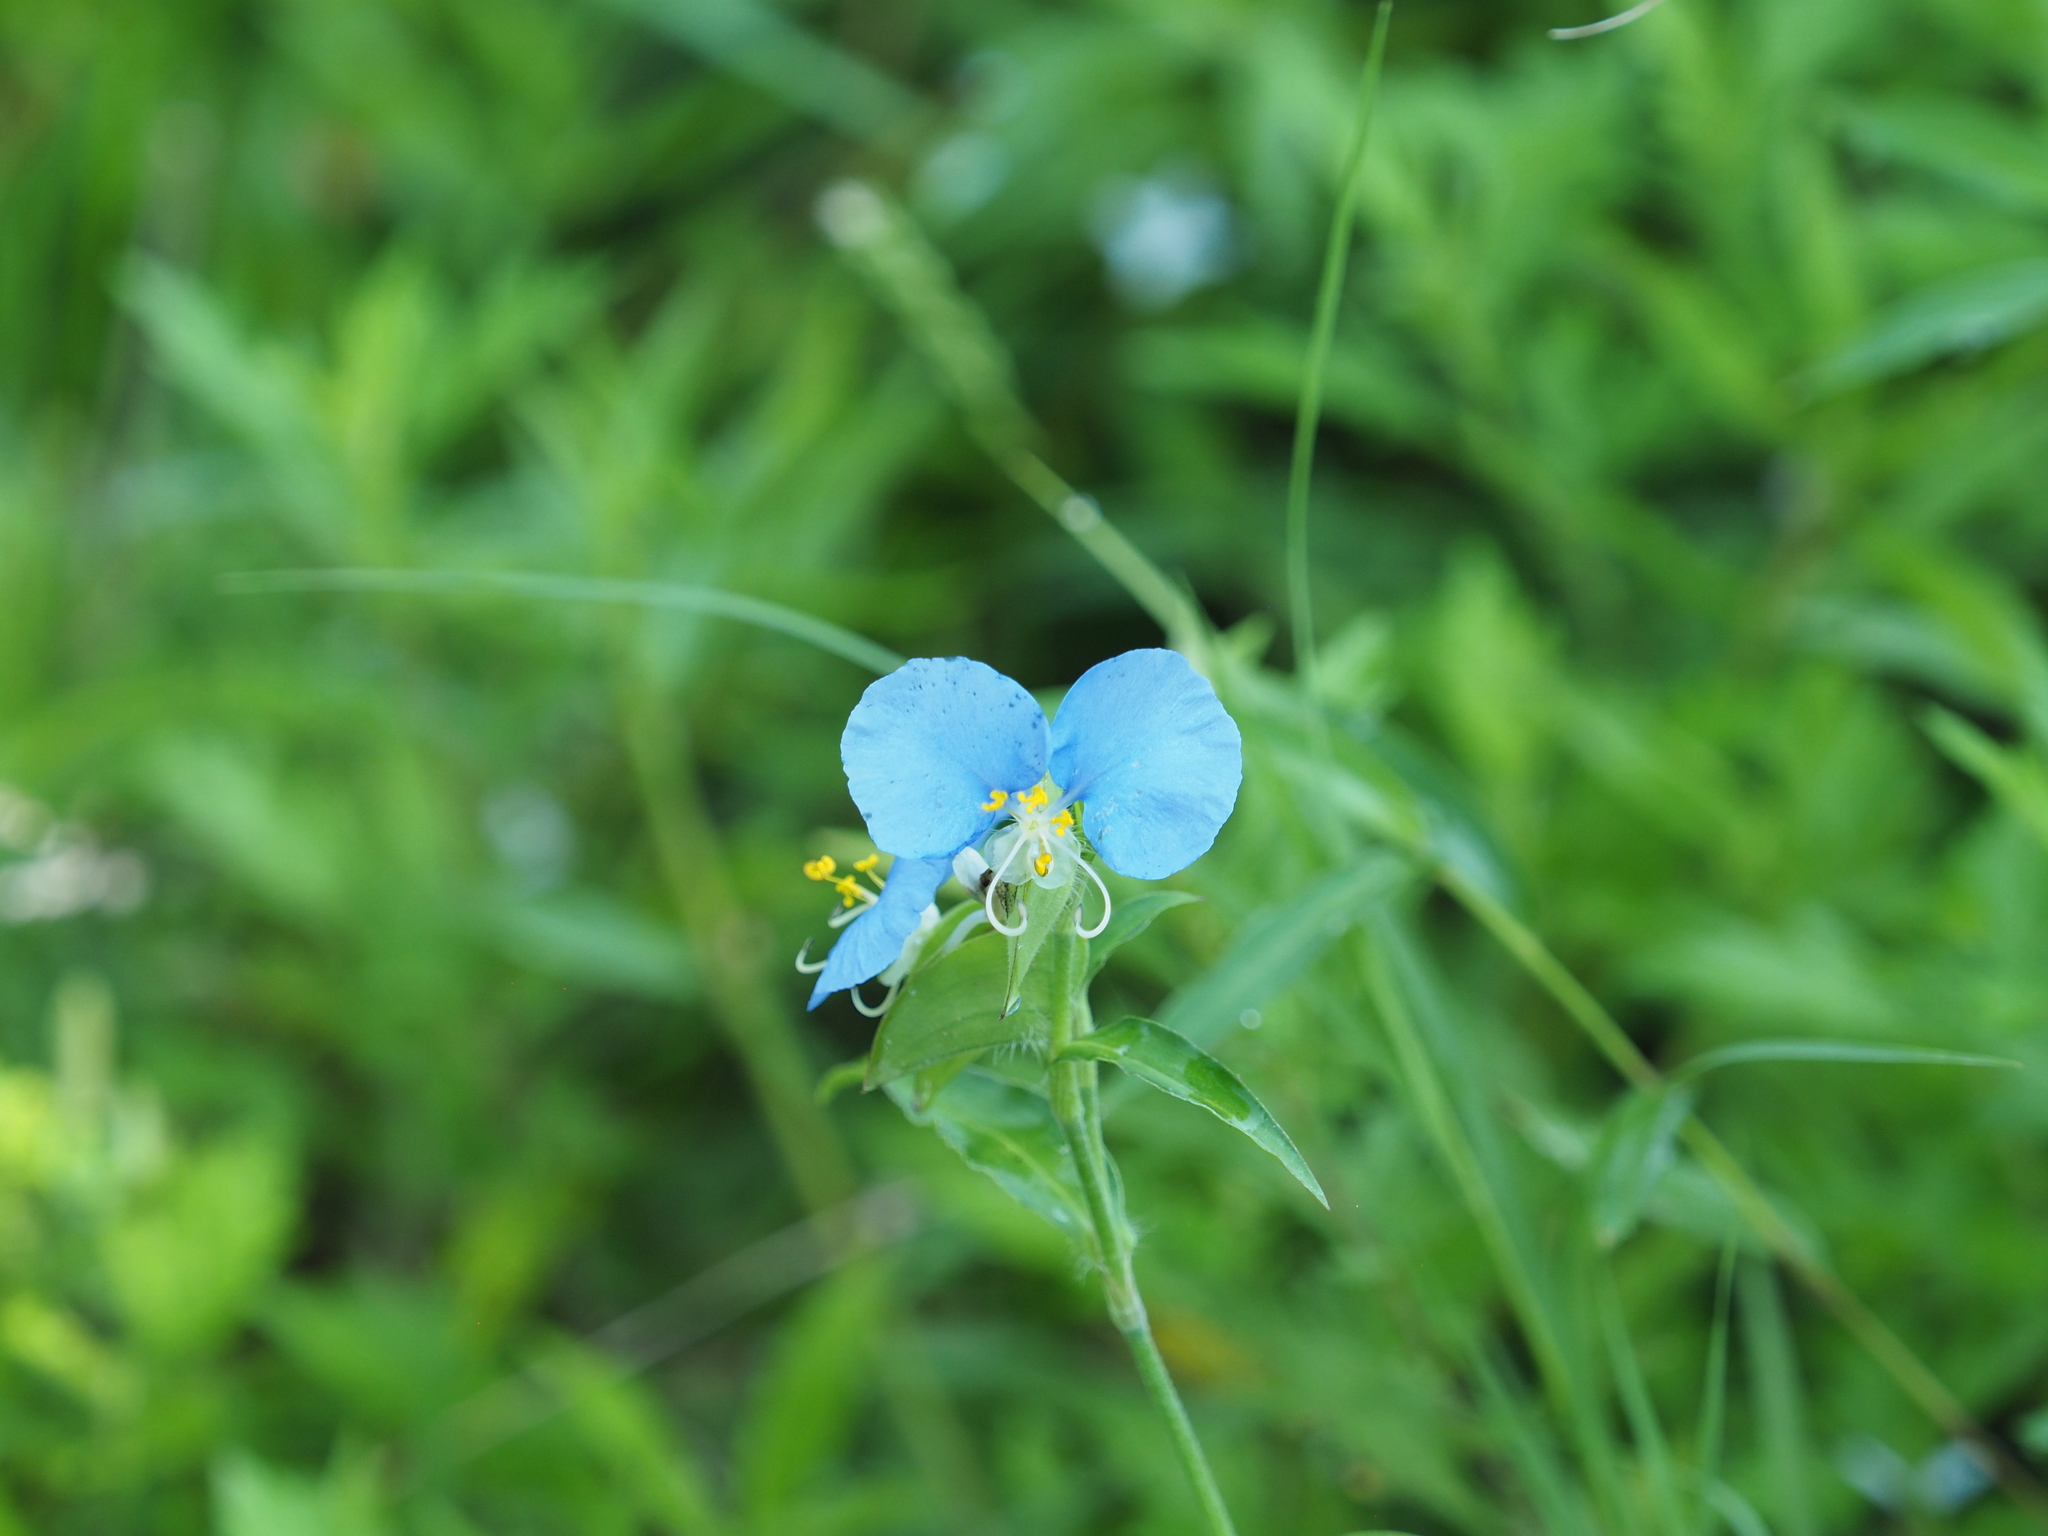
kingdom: Plantae
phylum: Tracheophyta
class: Liliopsida
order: Commelinales
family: Commelinaceae
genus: Commelina
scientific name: Commelina erecta
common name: Blousel blommetjie
